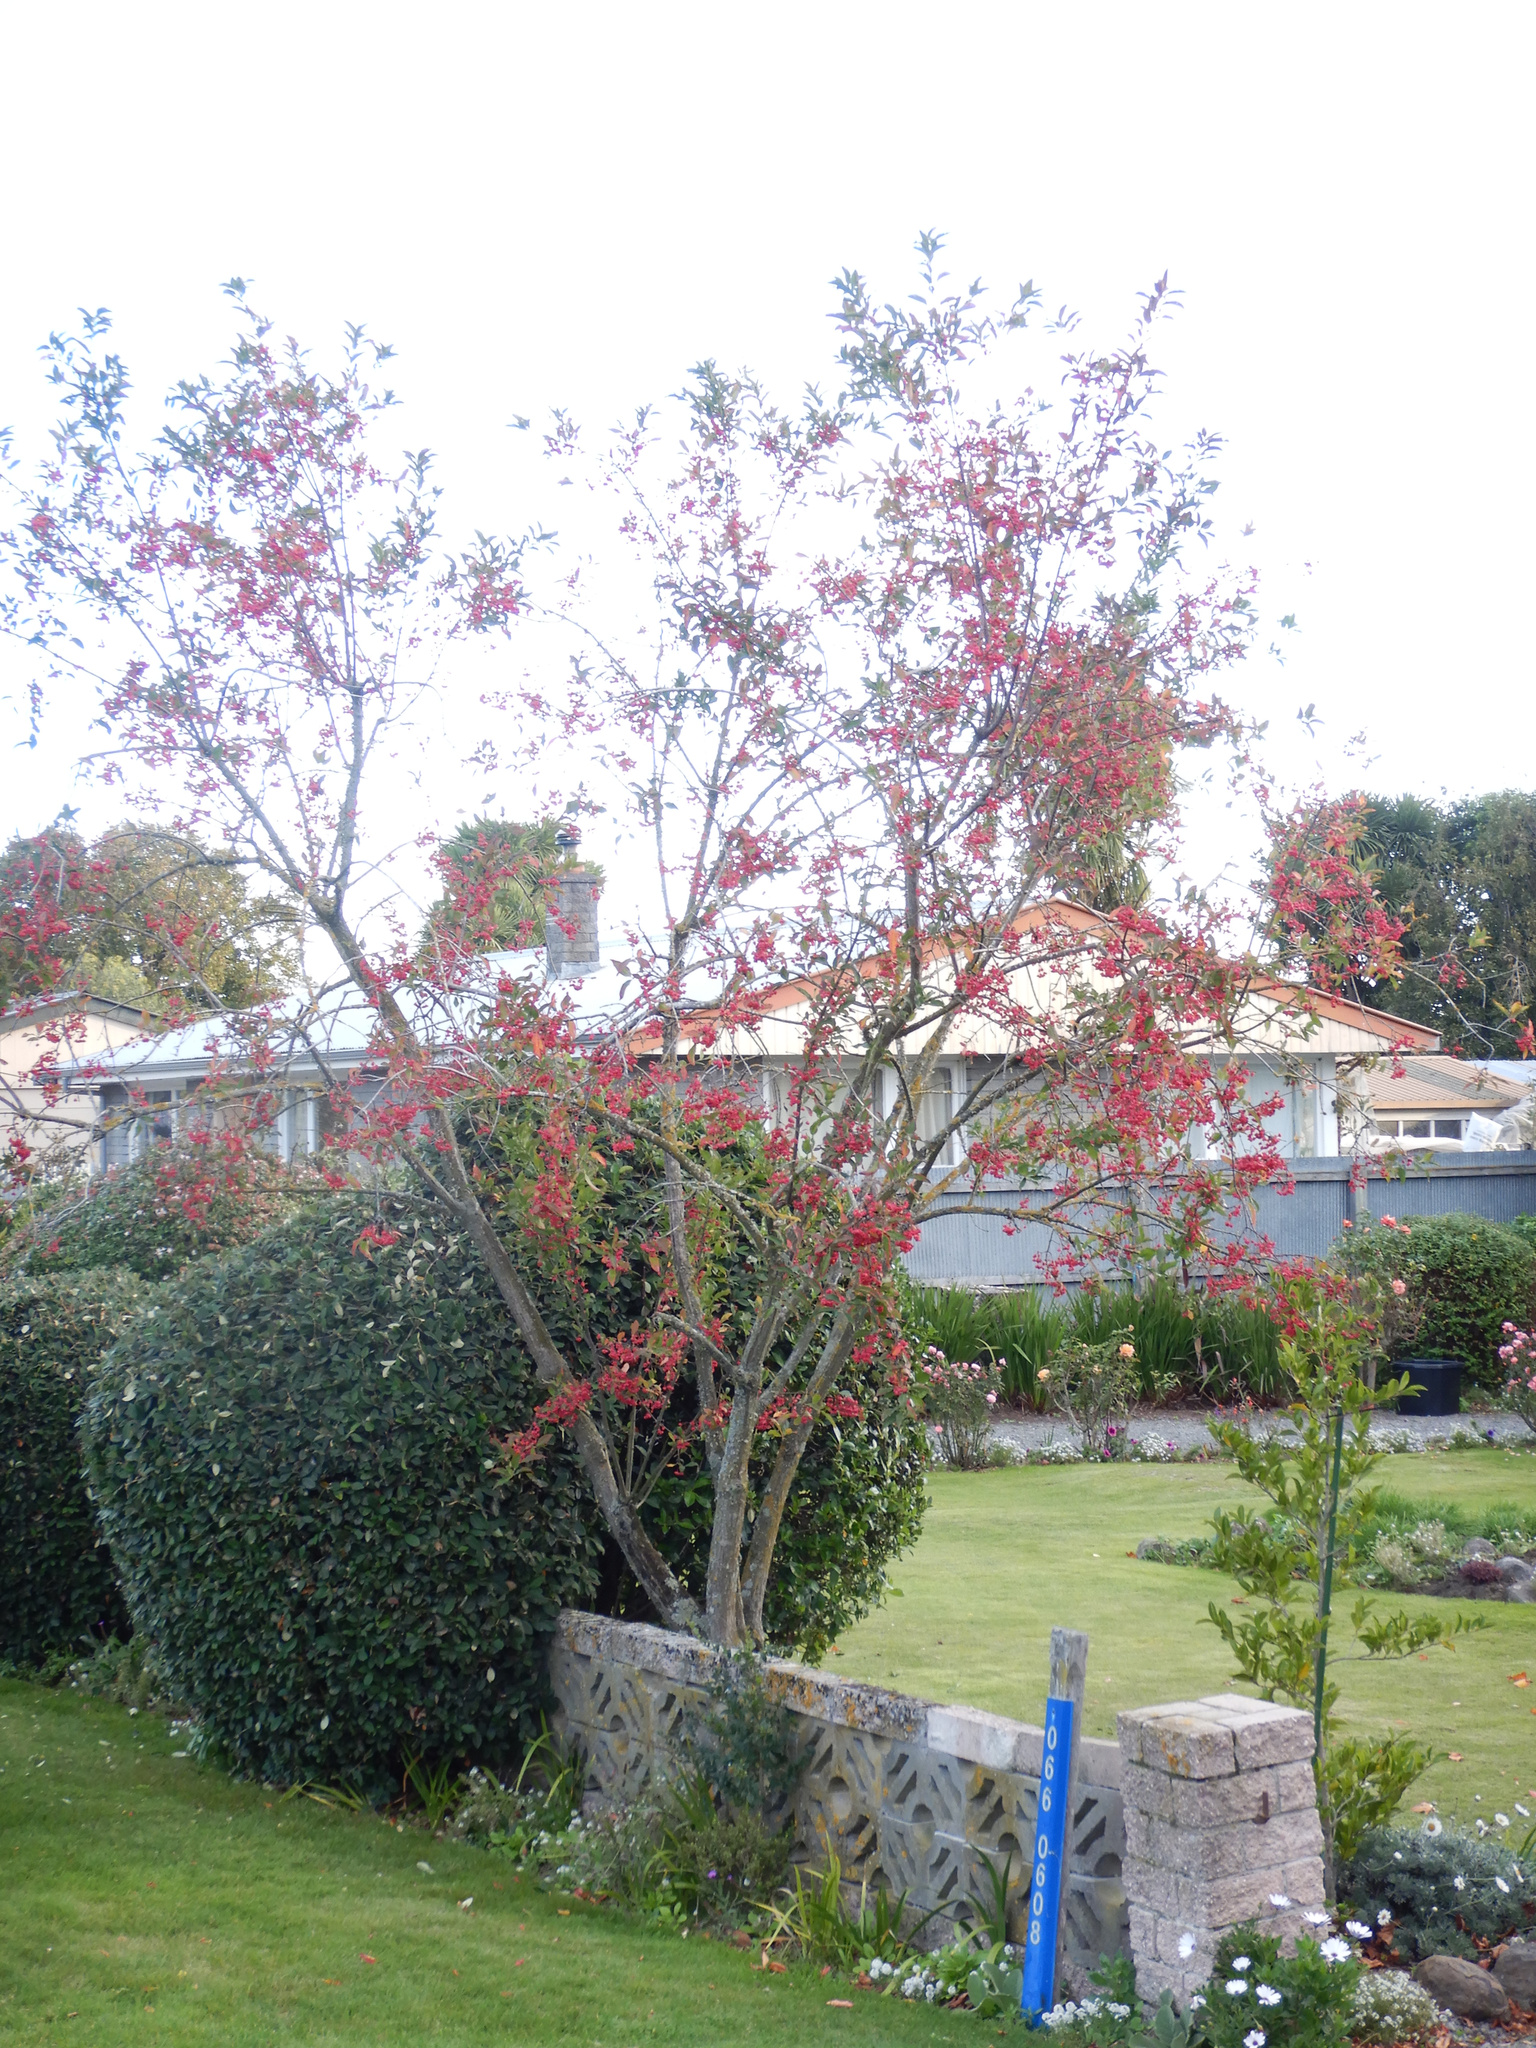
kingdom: Plantae
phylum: Tracheophyta
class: Magnoliopsida
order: Celastrales
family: Celastraceae
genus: Euonymus
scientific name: Euonymus europaeus
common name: Spindle
